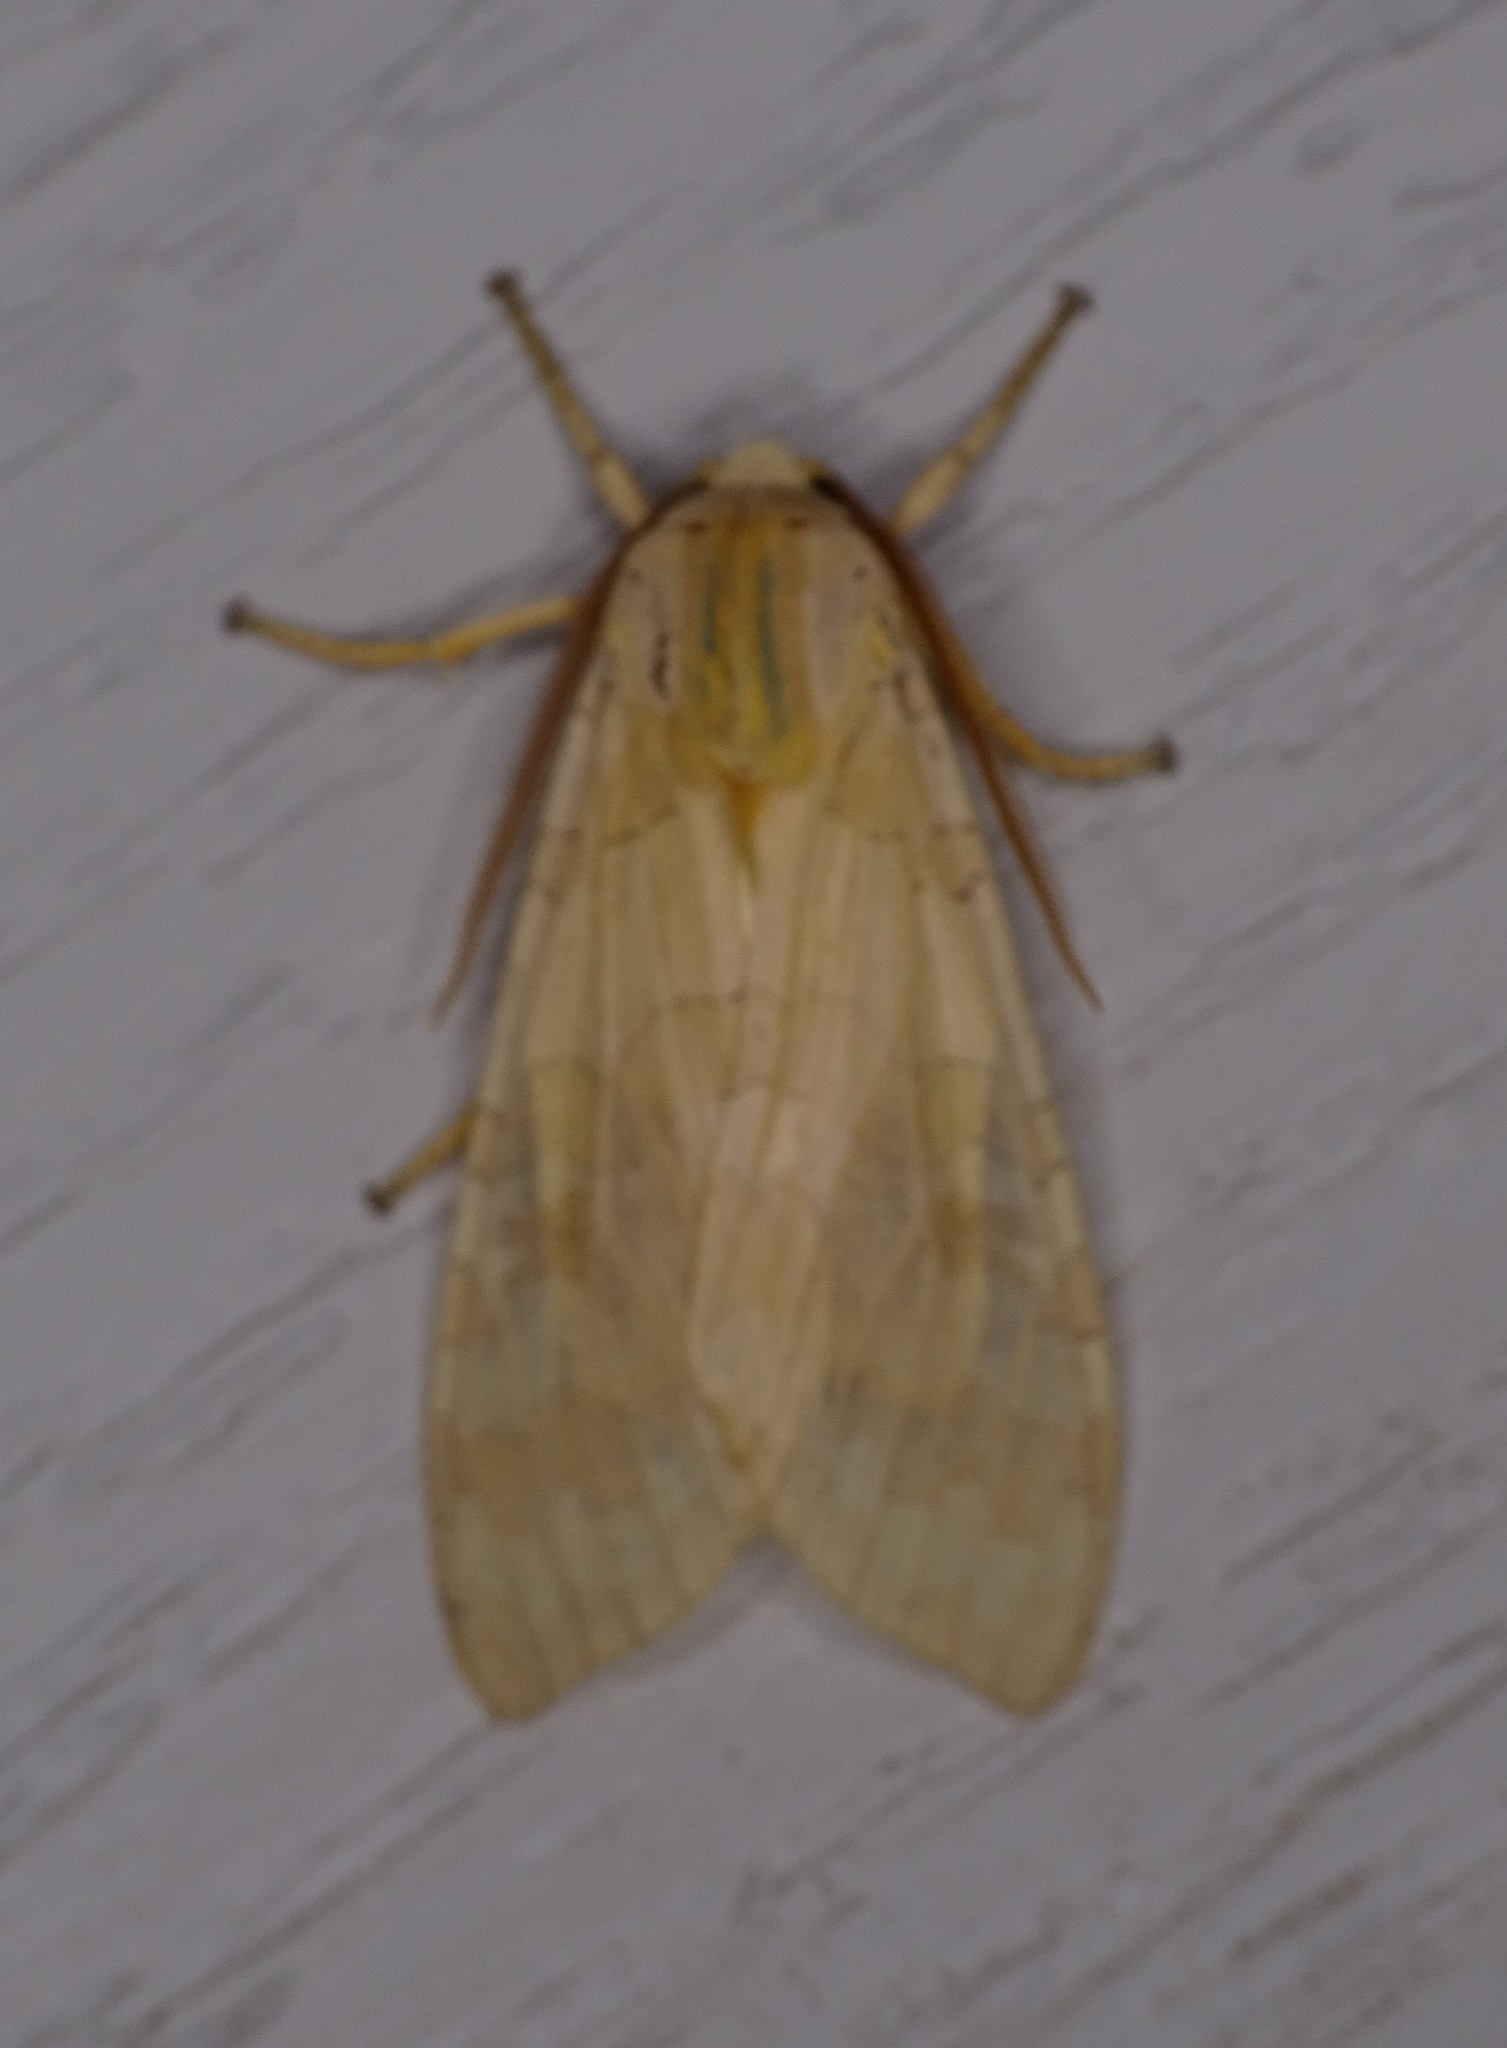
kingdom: Animalia
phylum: Arthropoda
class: Insecta
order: Lepidoptera
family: Erebidae
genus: Halysidota
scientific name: Halysidota
